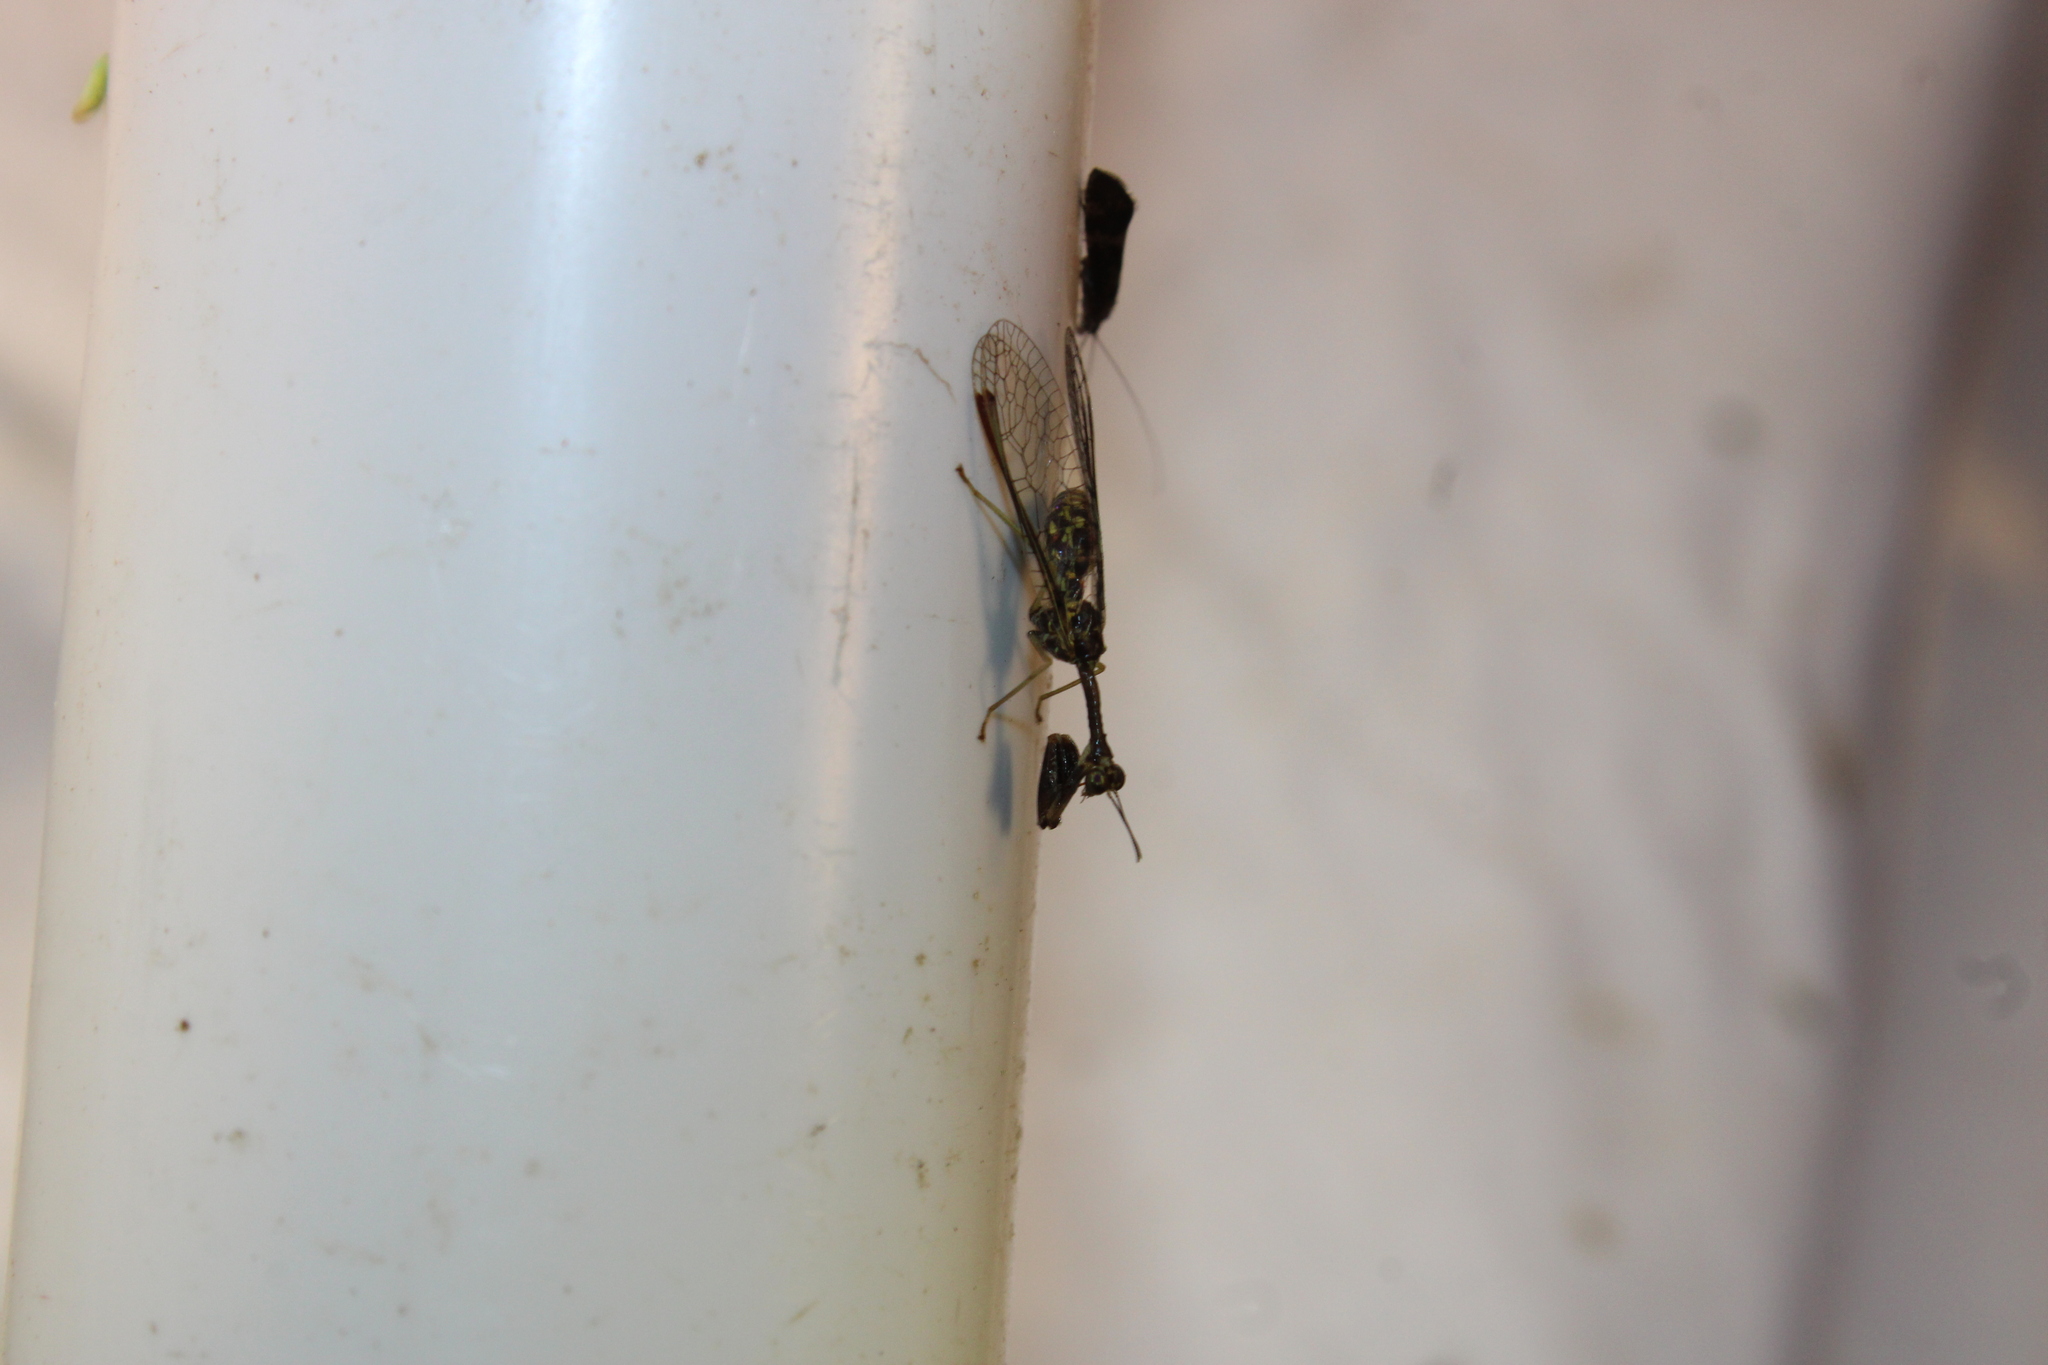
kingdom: Animalia
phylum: Arthropoda
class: Insecta
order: Neuroptera
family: Mantispidae
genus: Dicromantispa
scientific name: Dicromantispa sayi
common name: Say's mantidfly
